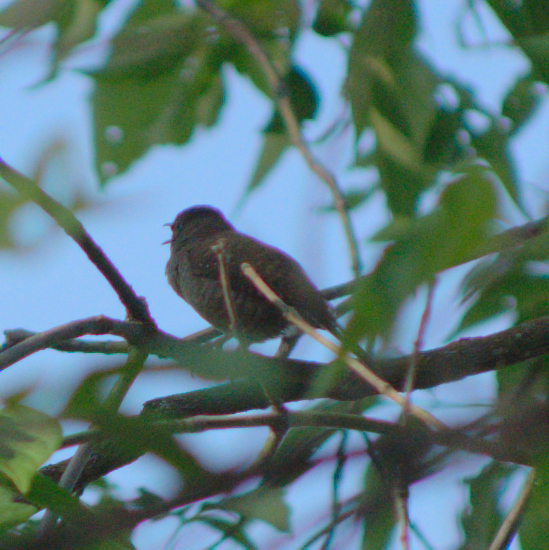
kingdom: Animalia
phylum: Chordata
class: Aves
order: Passeriformes
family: Troglodytidae
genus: Troglodytes
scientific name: Troglodytes aedon
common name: House wren
